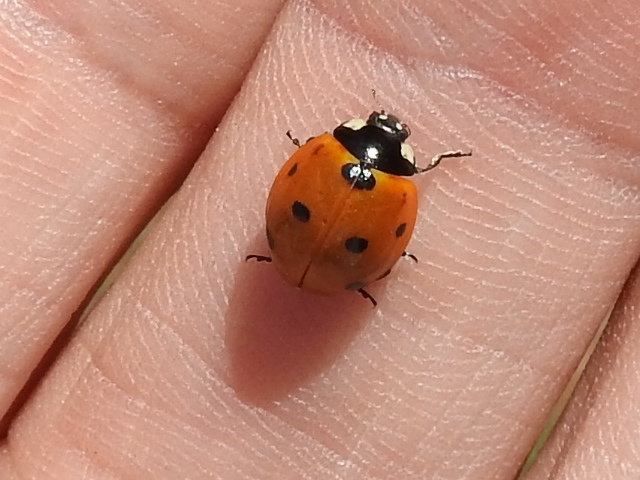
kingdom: Animalia
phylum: Arthropoda
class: Insecta
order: Coleoptera
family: Coccinellidae
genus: Coccinella
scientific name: Coccinella septempunctata
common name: Sevenspotted lady beetle
